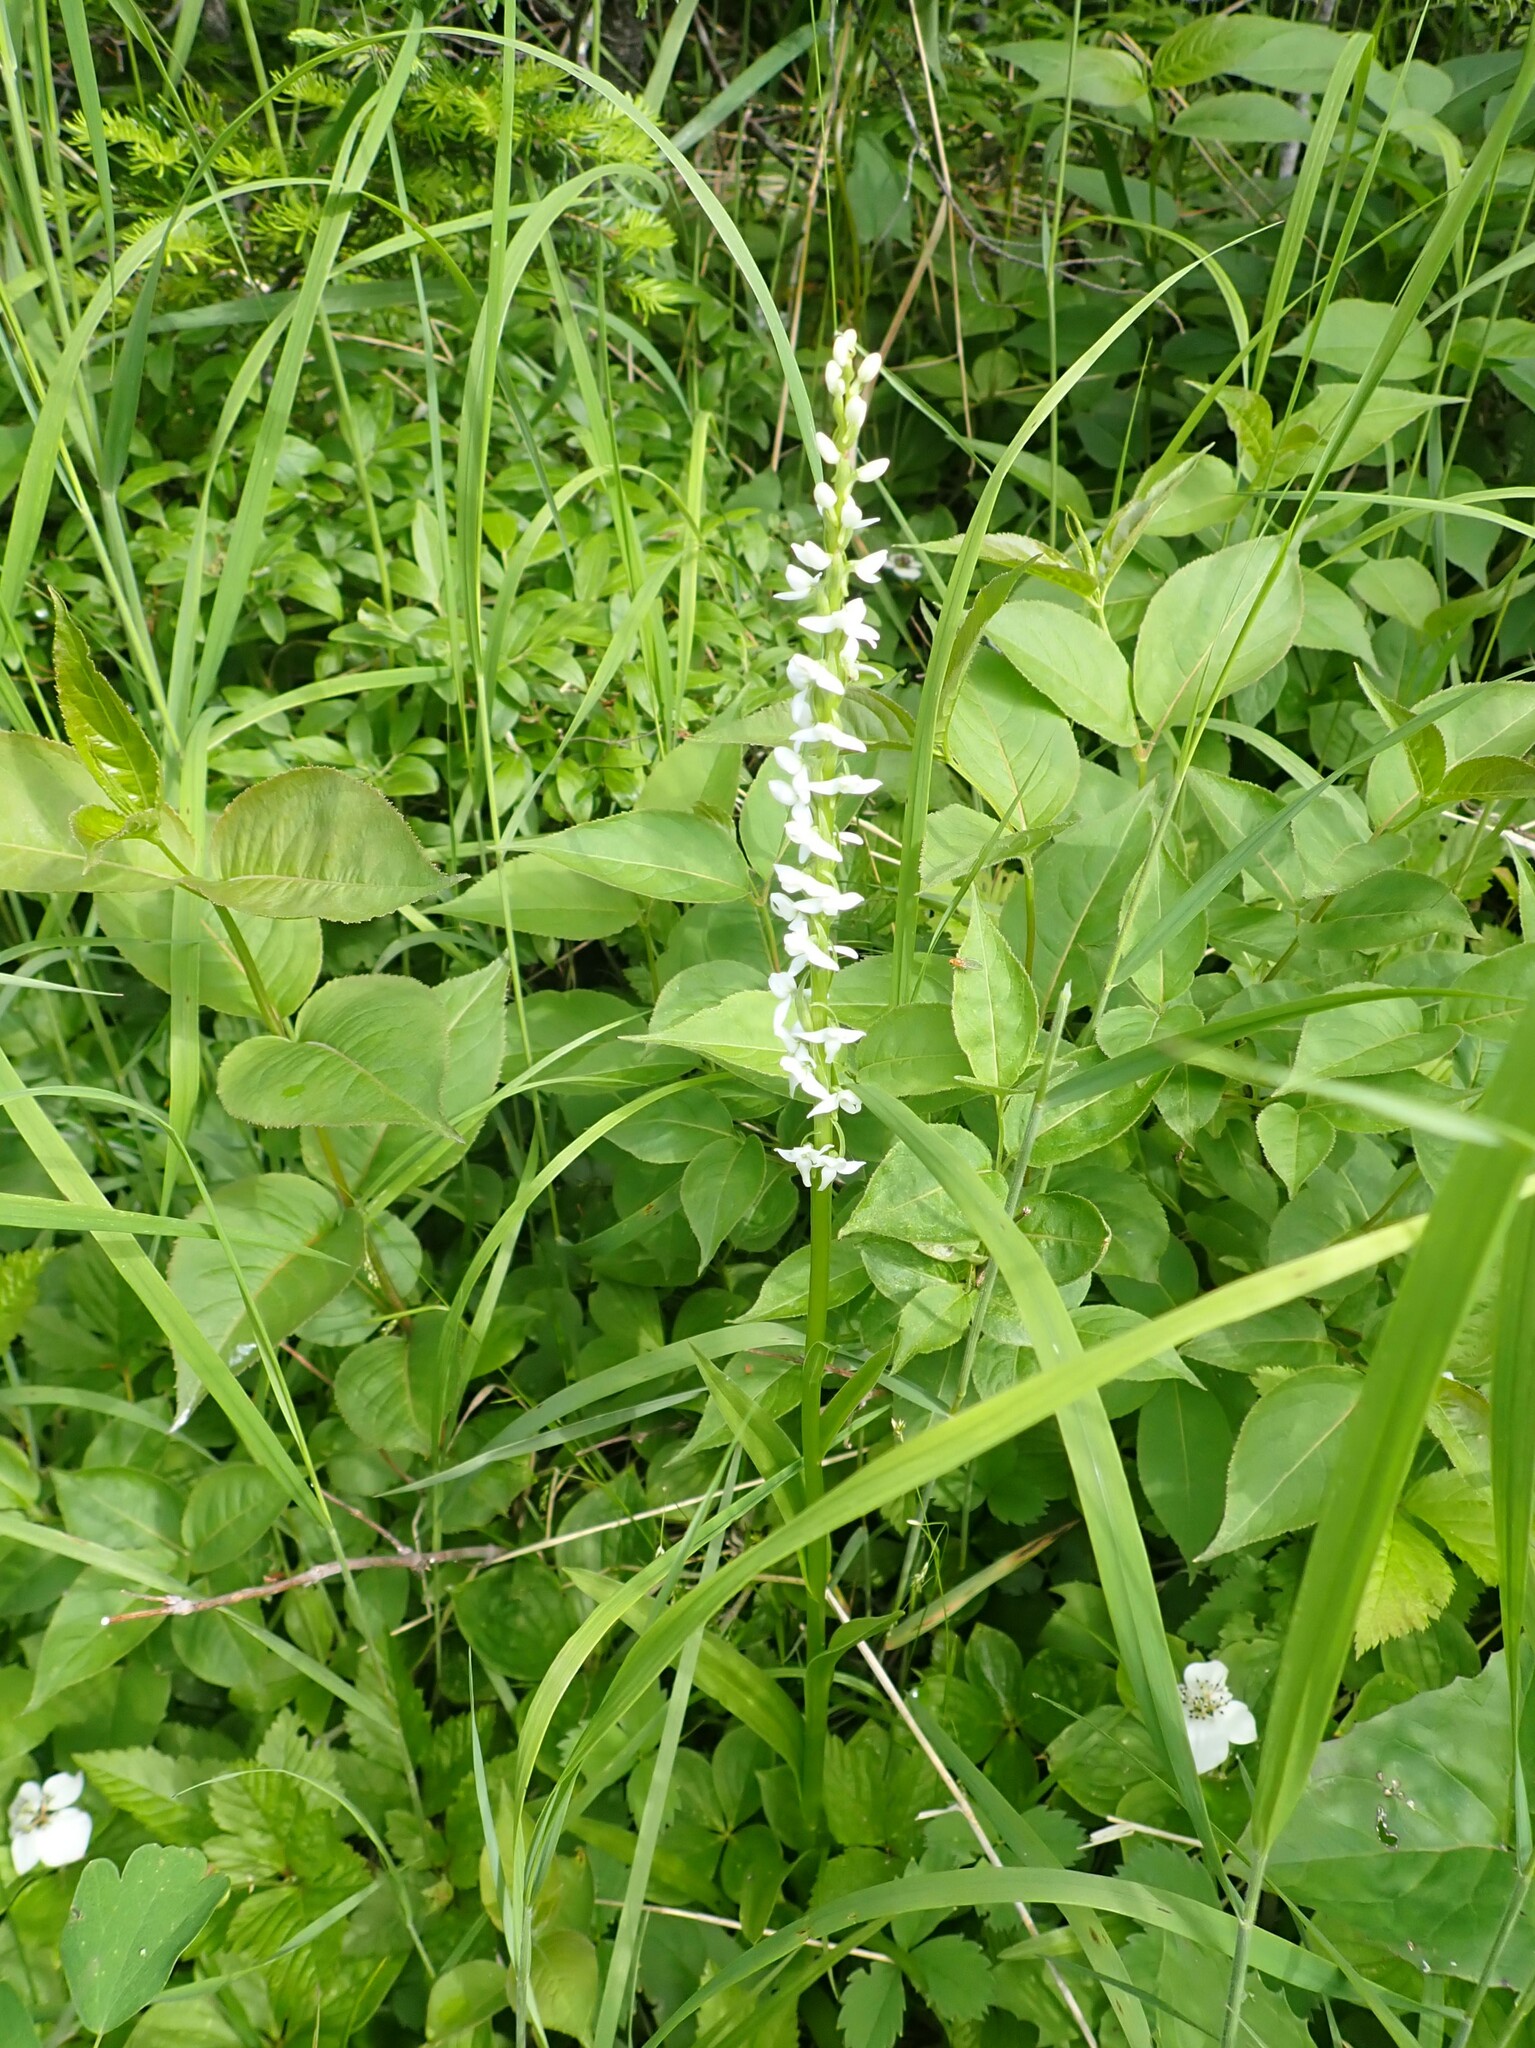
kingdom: Plantae
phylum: Tracheophyta
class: Liliopsida
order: Asparagales
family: Orchidaceae
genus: Platanthera
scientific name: Platanthera dilatata
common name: Bog candles
